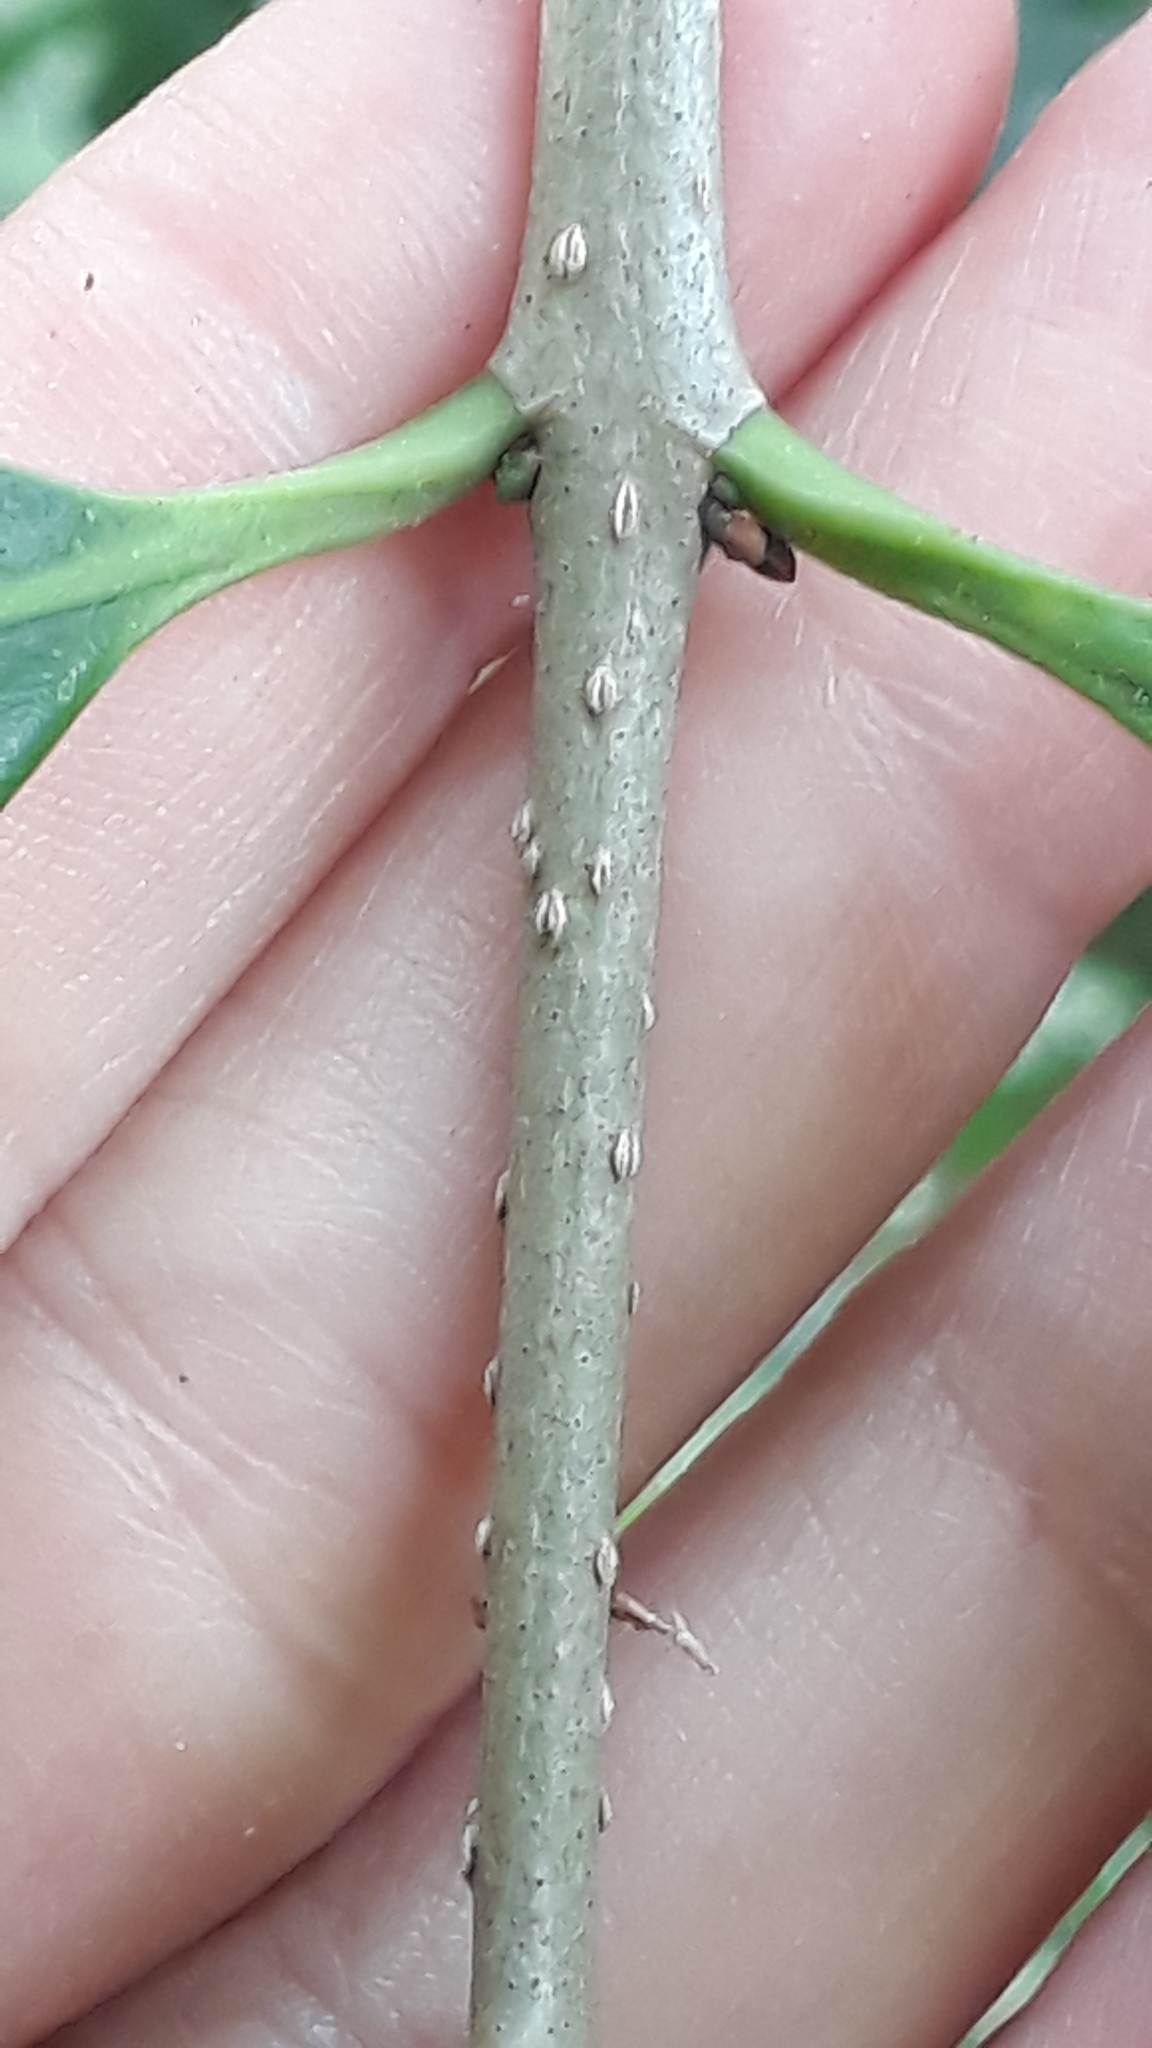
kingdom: Plantae
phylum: Tracheophyta
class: Magnoliopsida
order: Lamiales
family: Oleaceae
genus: Picconia
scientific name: Picconia excelsa
